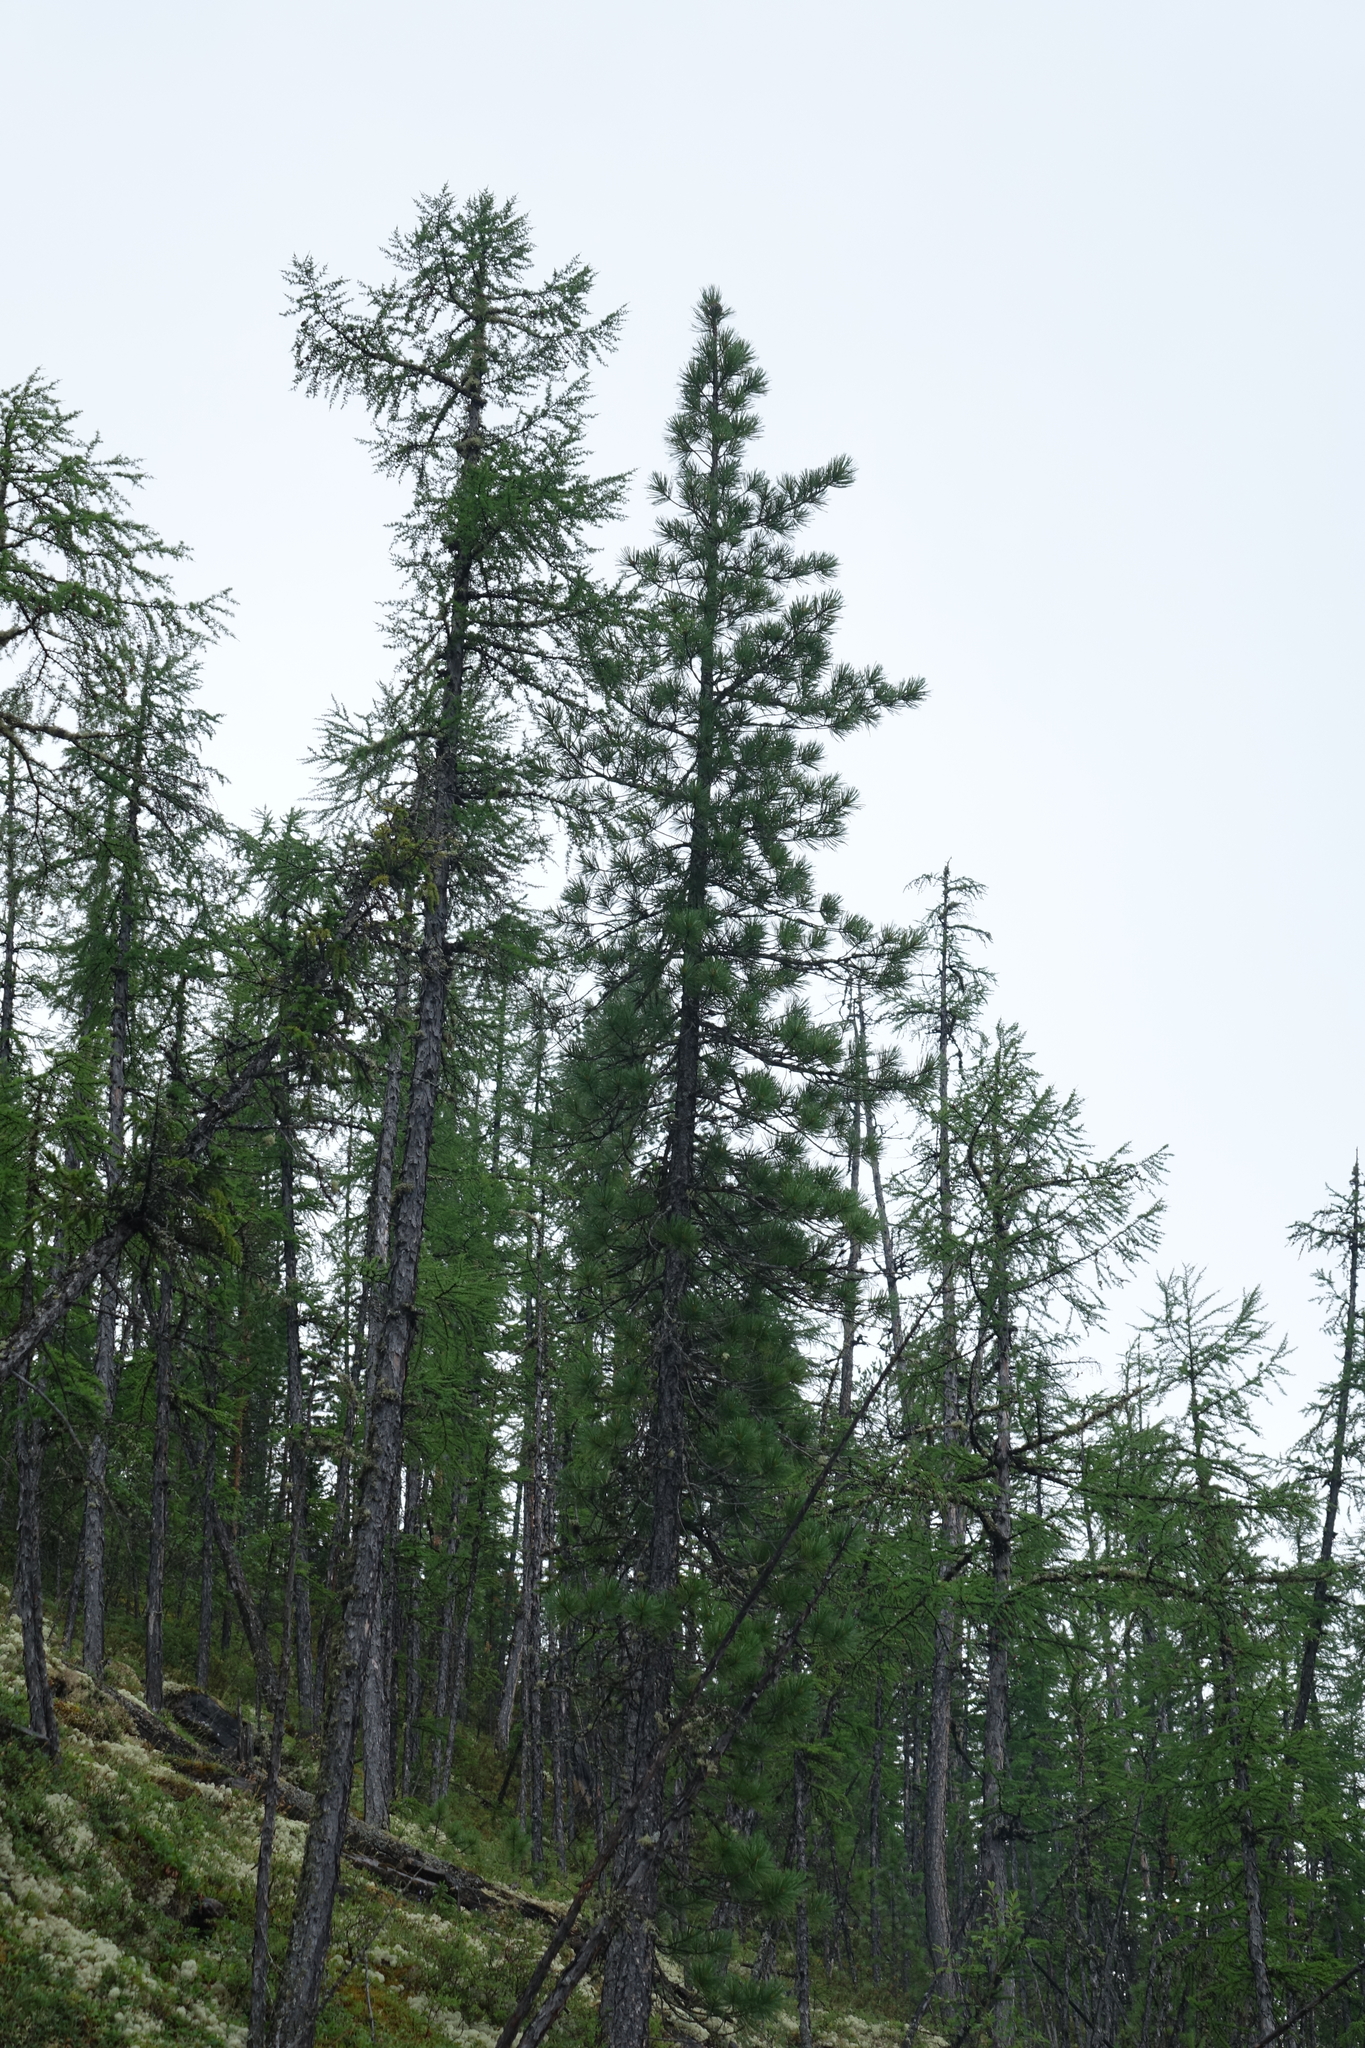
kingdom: Plantae
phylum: Tracheophyta
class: Pinopsida
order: Pinales
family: Pinaceae
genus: Larix
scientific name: Larix gmelinii
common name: Dahurian larch
